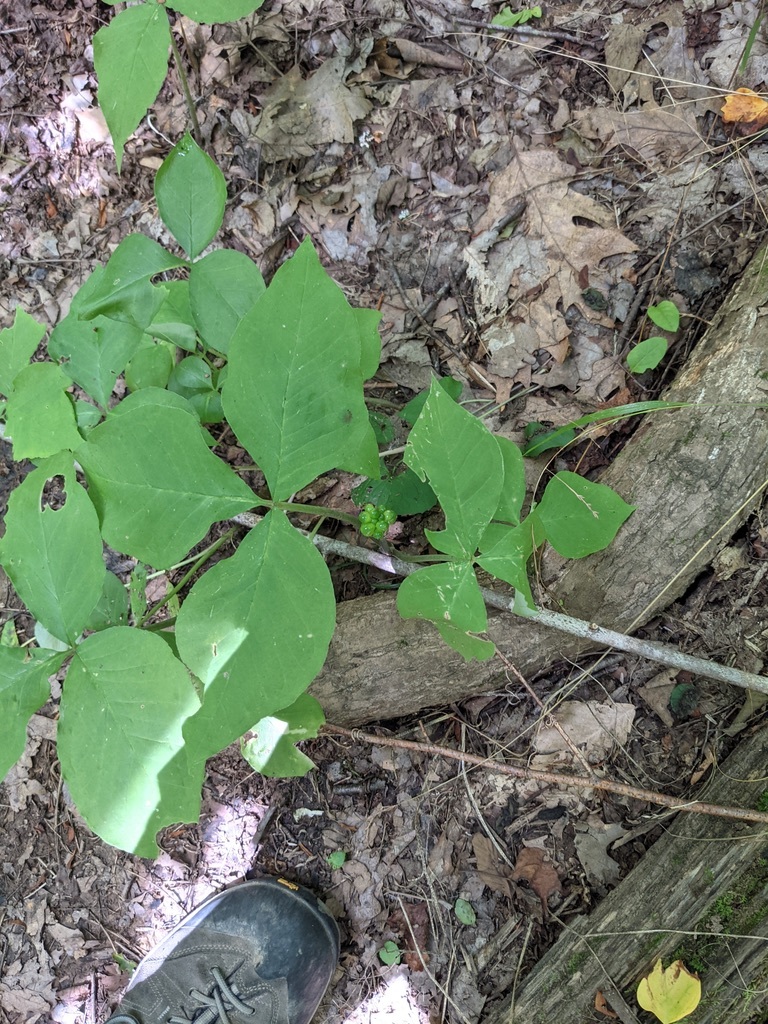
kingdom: Plantae
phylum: Tracheophyta
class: Liliopsida
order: Alismatales
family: Araceae
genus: Arisaema
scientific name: Arisaema triphyllum
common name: Jack-in-the-pulpit
